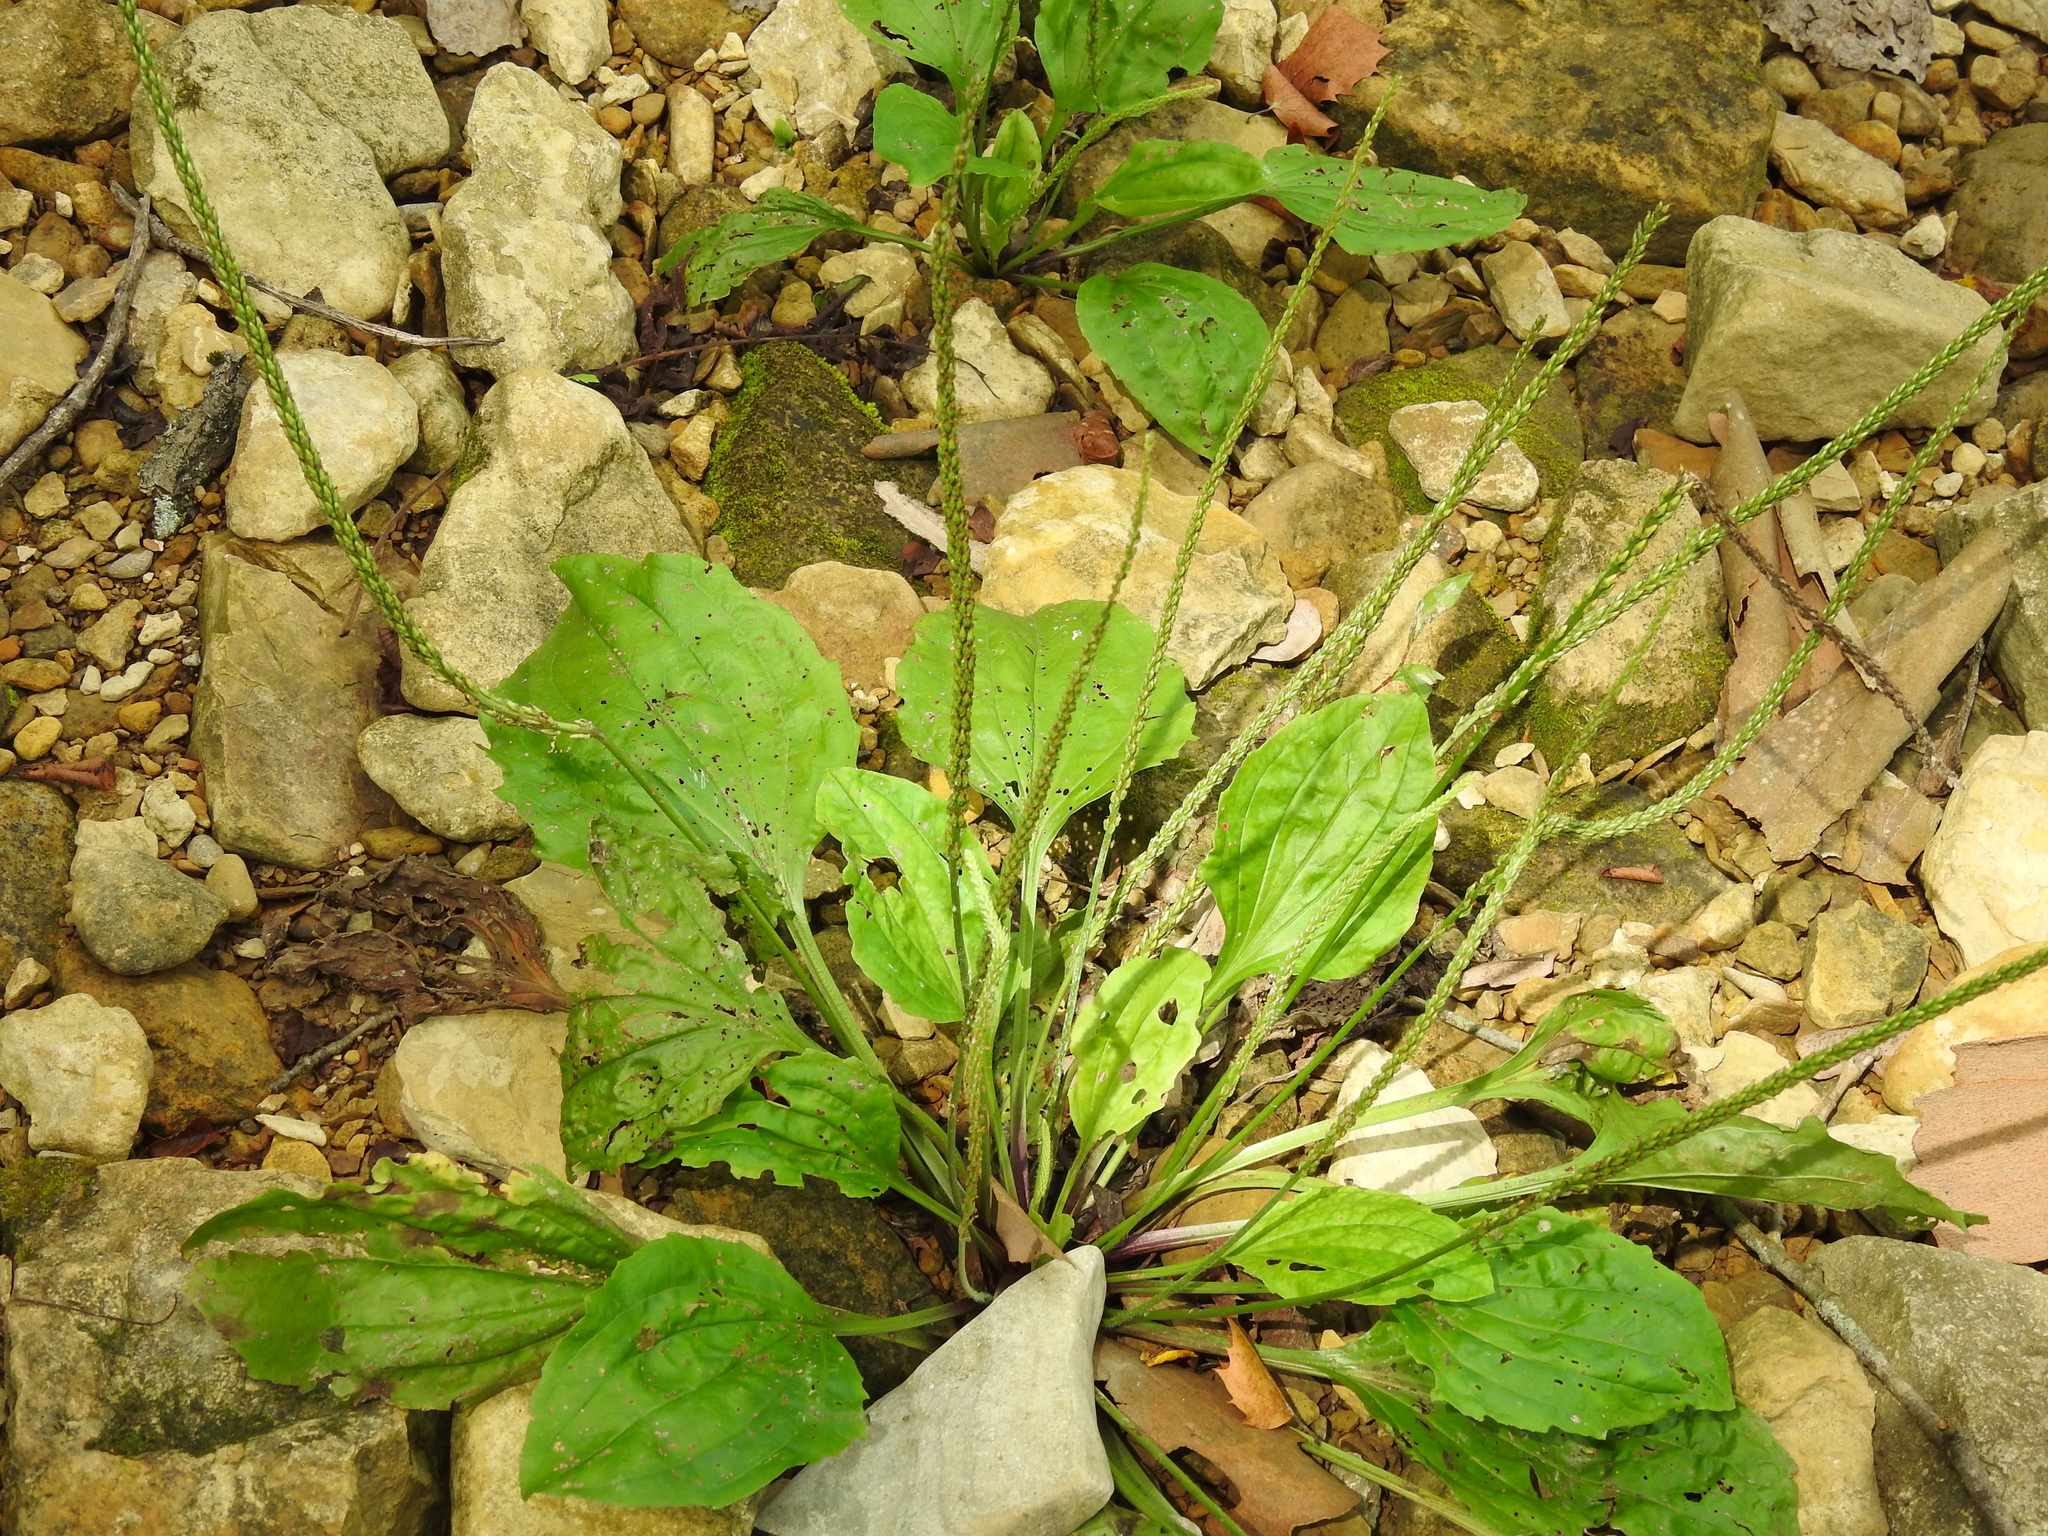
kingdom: Plantae
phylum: Tracheophyta
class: Magnoliopsida
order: Lamiales
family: Plantaginaceae
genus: Plantago
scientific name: Plantago rugelii
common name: American plantain
